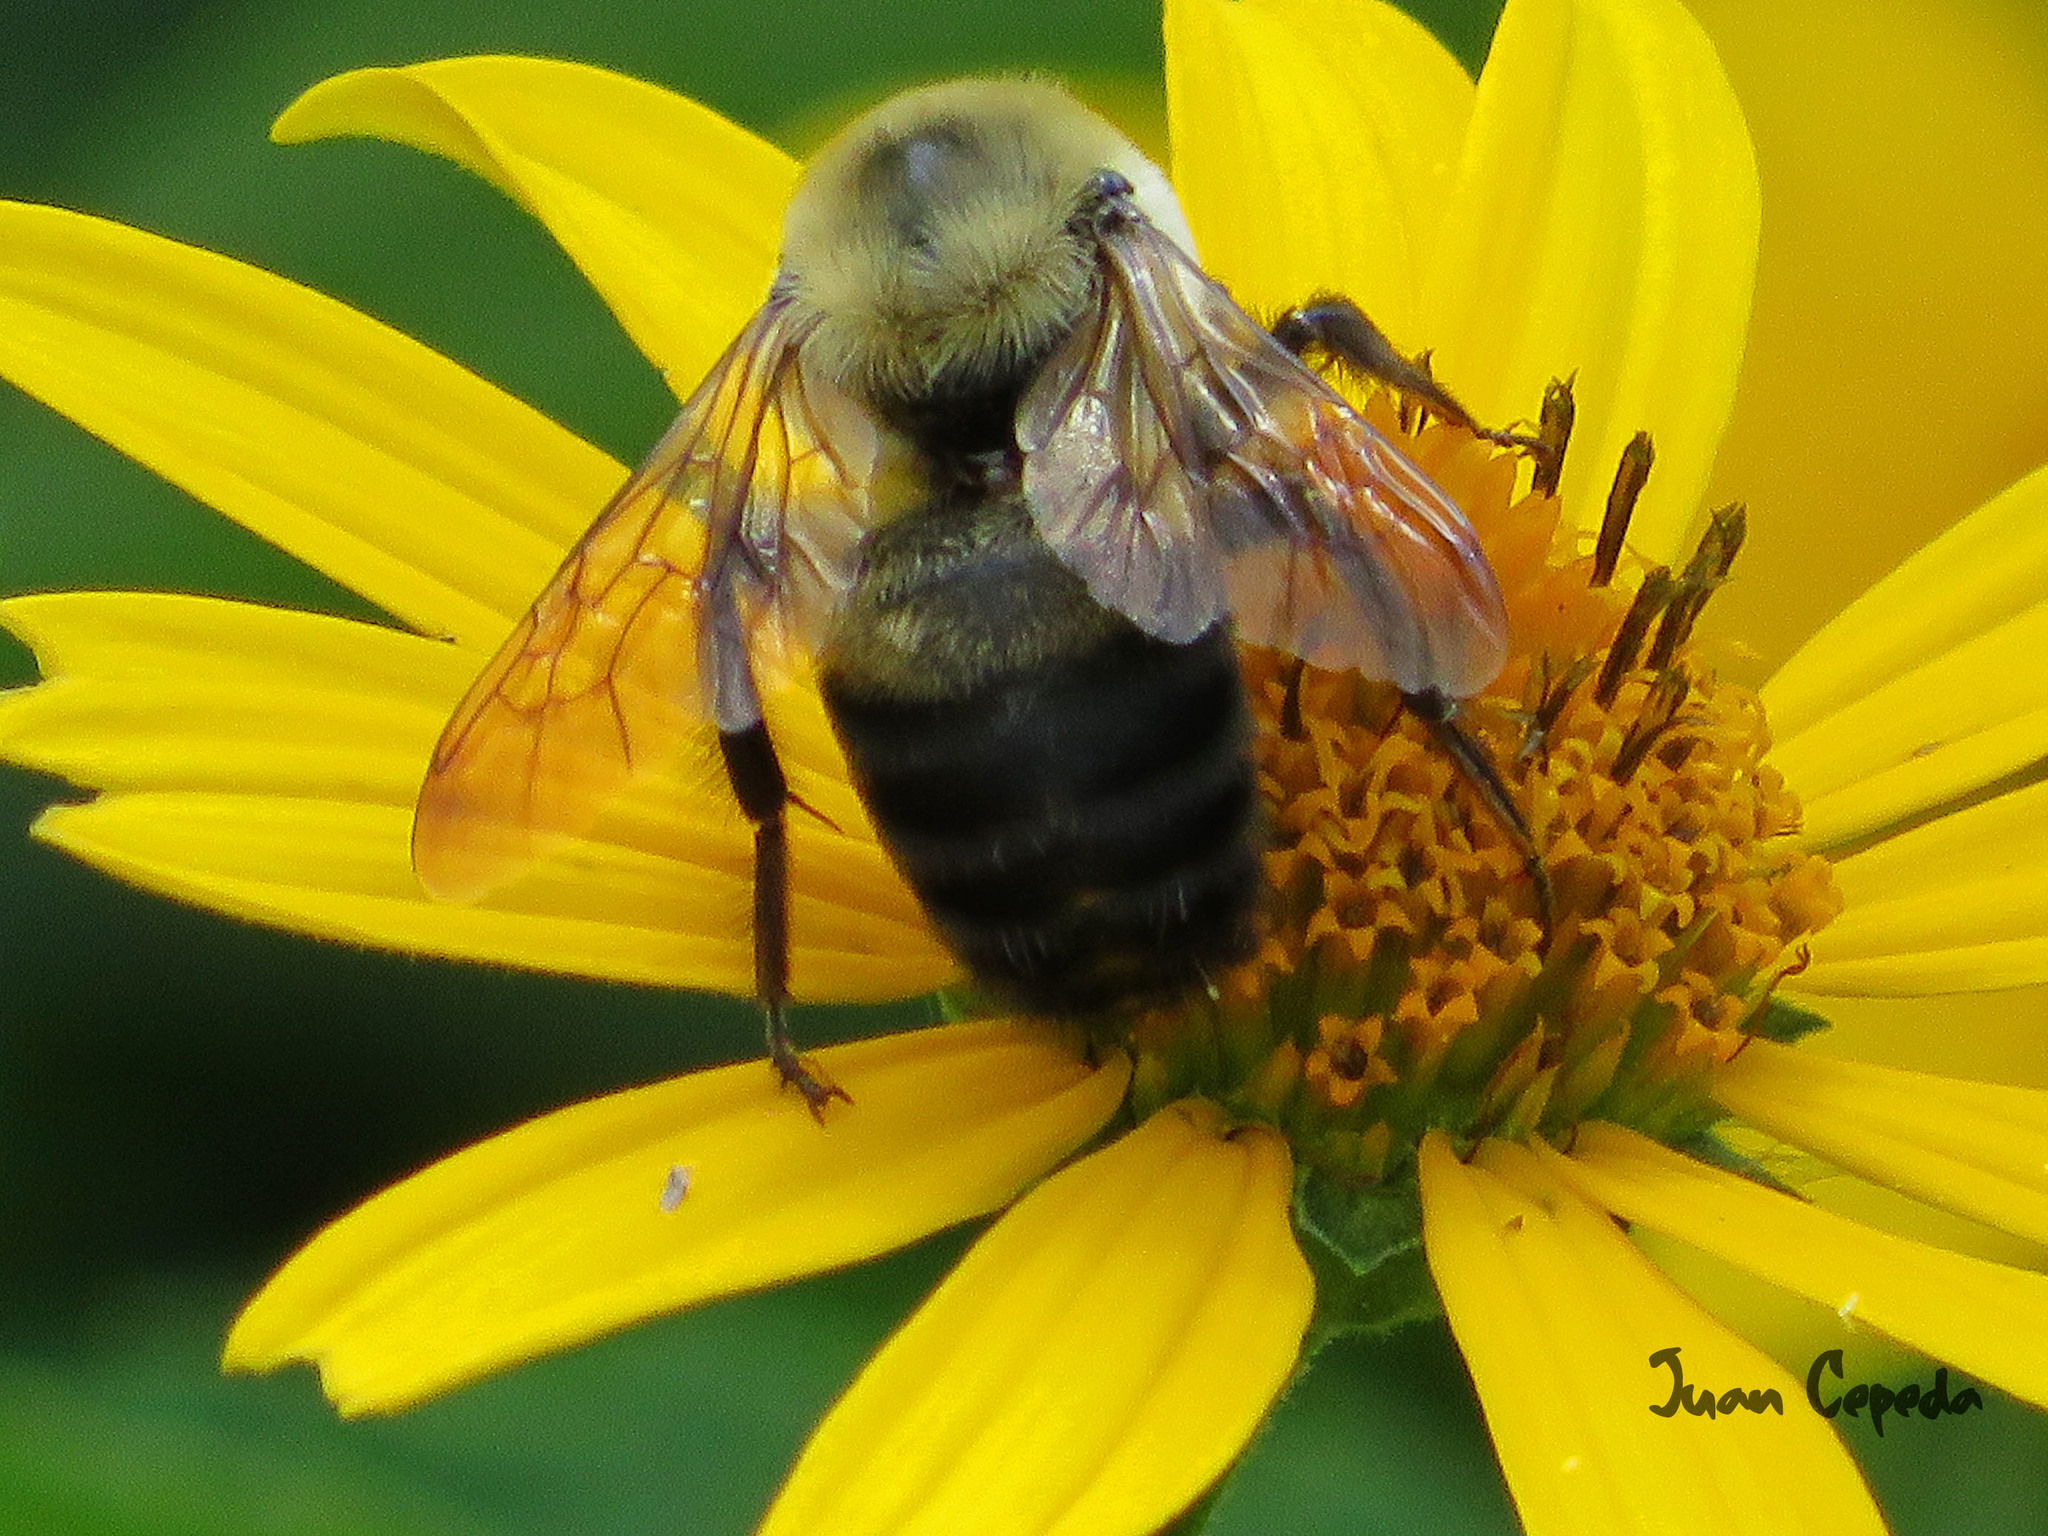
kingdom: Animalia
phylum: Arthropoda
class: Insecta
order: Hymenoptera
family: Apidae
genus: Bombus
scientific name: Bombus griseocollis
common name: Brown-belted bumble bee
